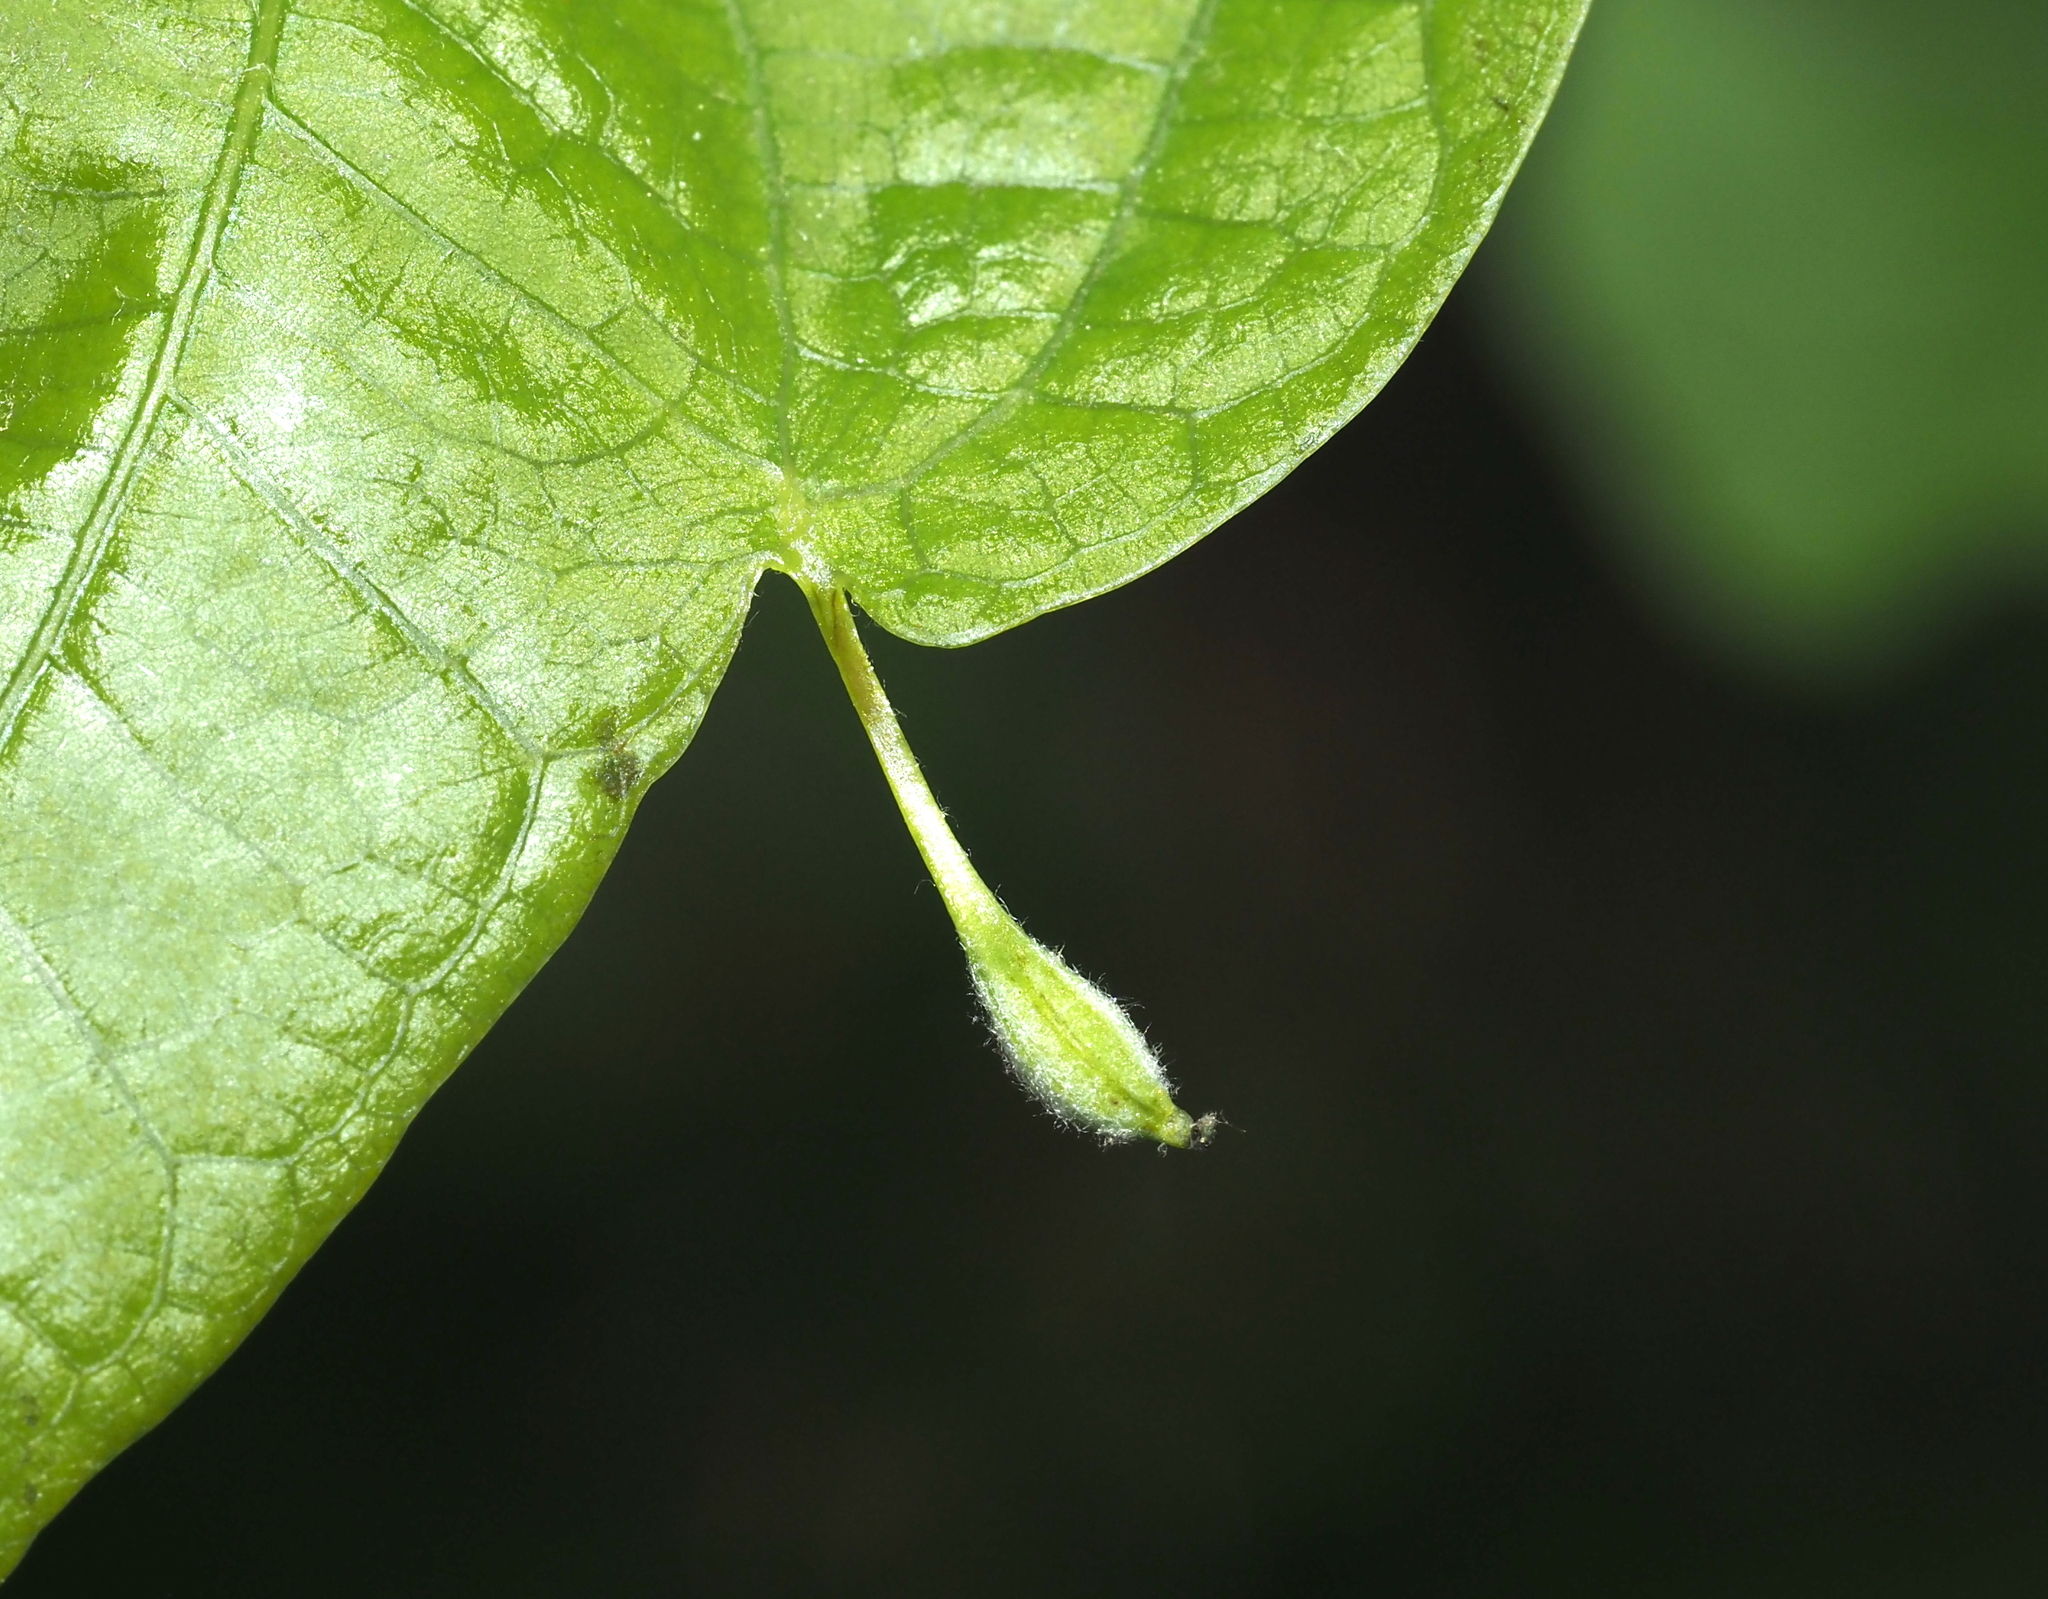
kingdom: Animalia
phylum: Arthropoda
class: Insecta
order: Hymenoptera
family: Cynipidae
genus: Andricus
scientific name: Andricus
